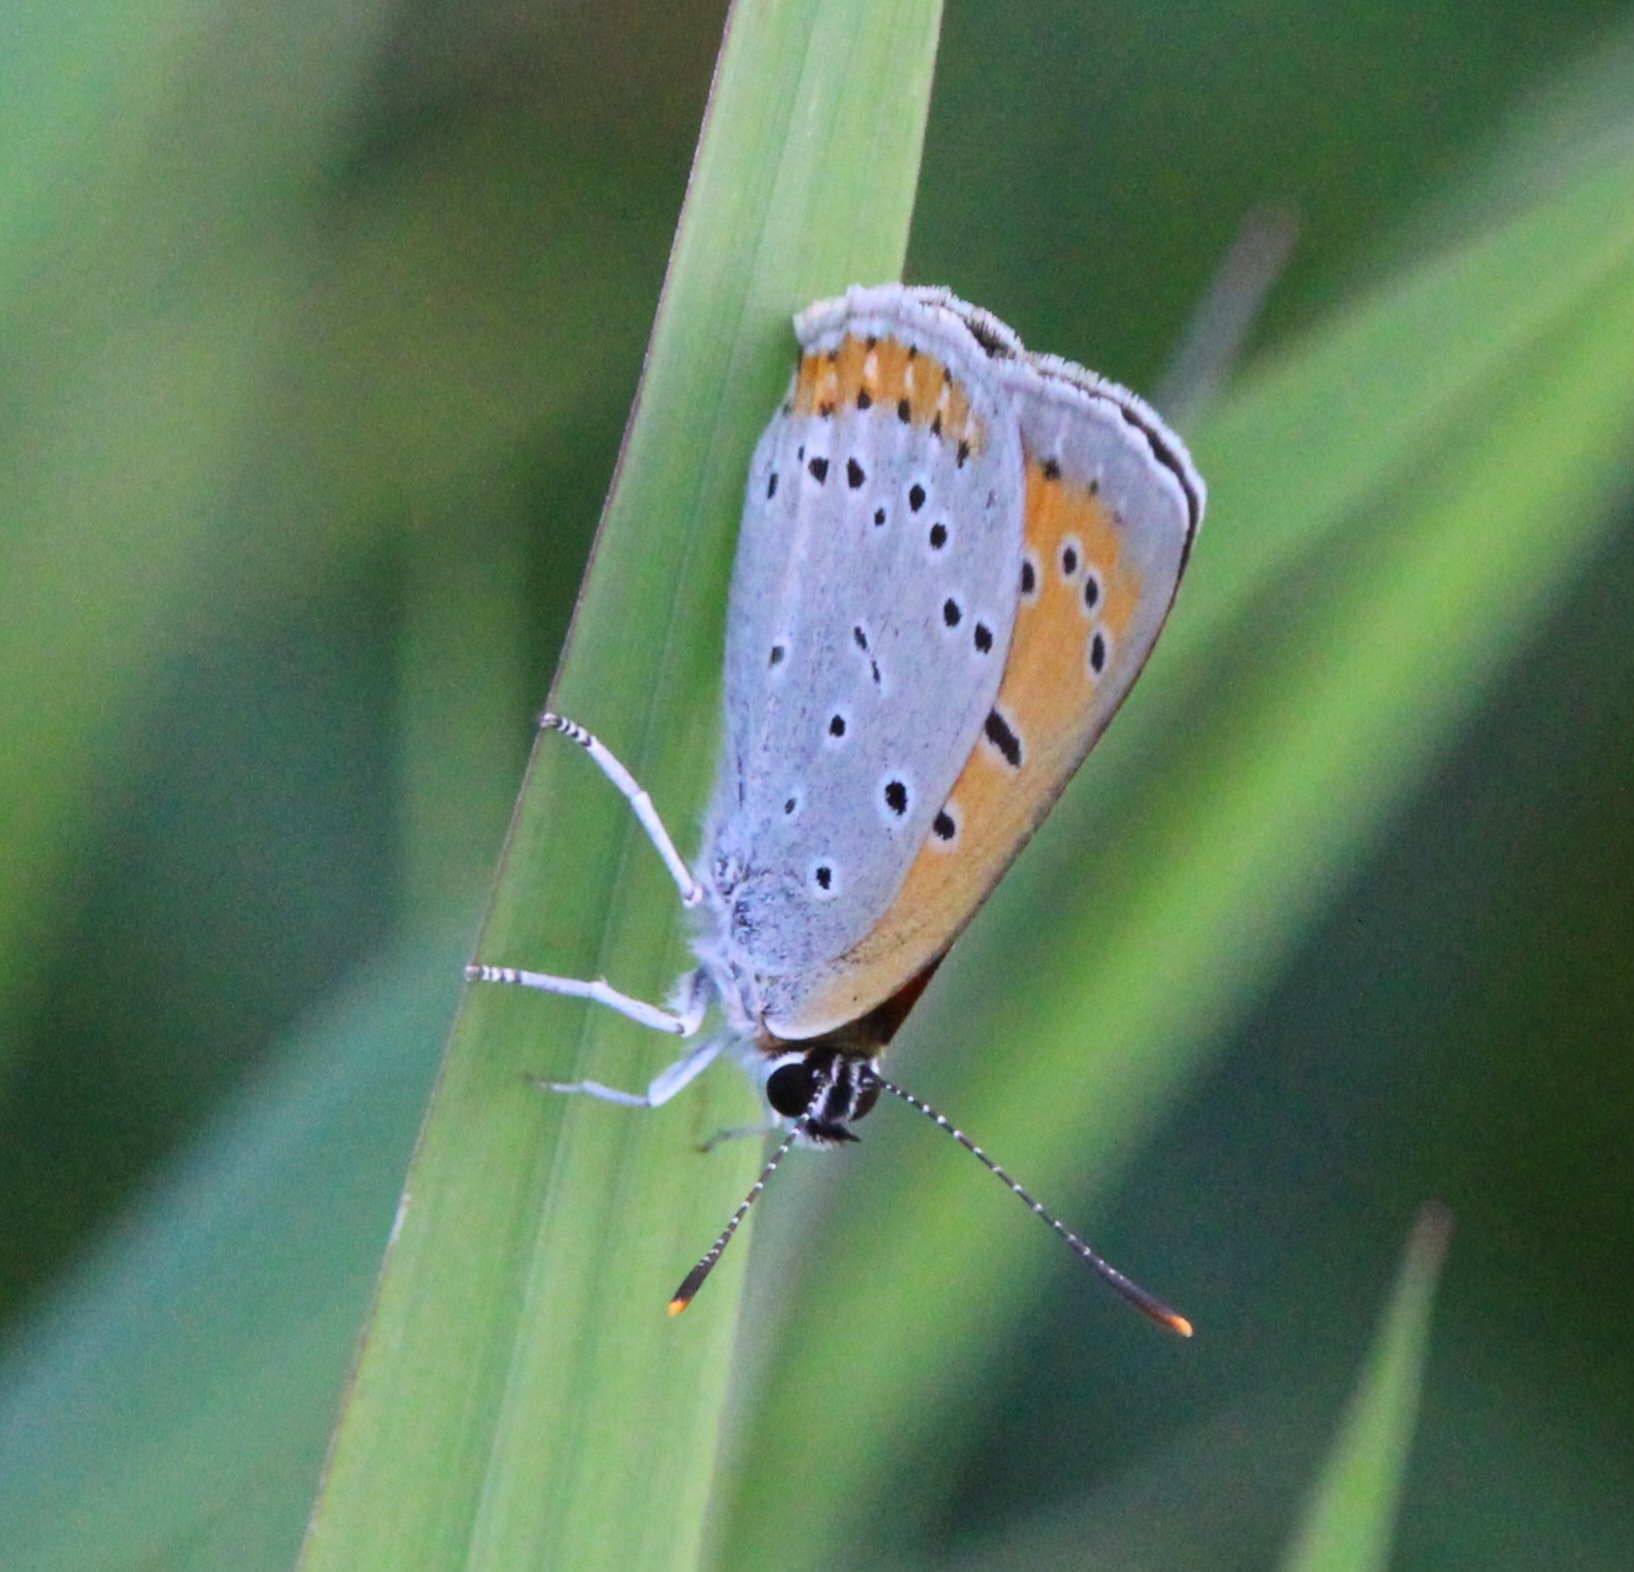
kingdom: Animalia
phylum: Arthropoda
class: Insecta
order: Lepidoptera
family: Lycaenidae
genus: Lycaena
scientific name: Lycaena dispar
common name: Large copper
